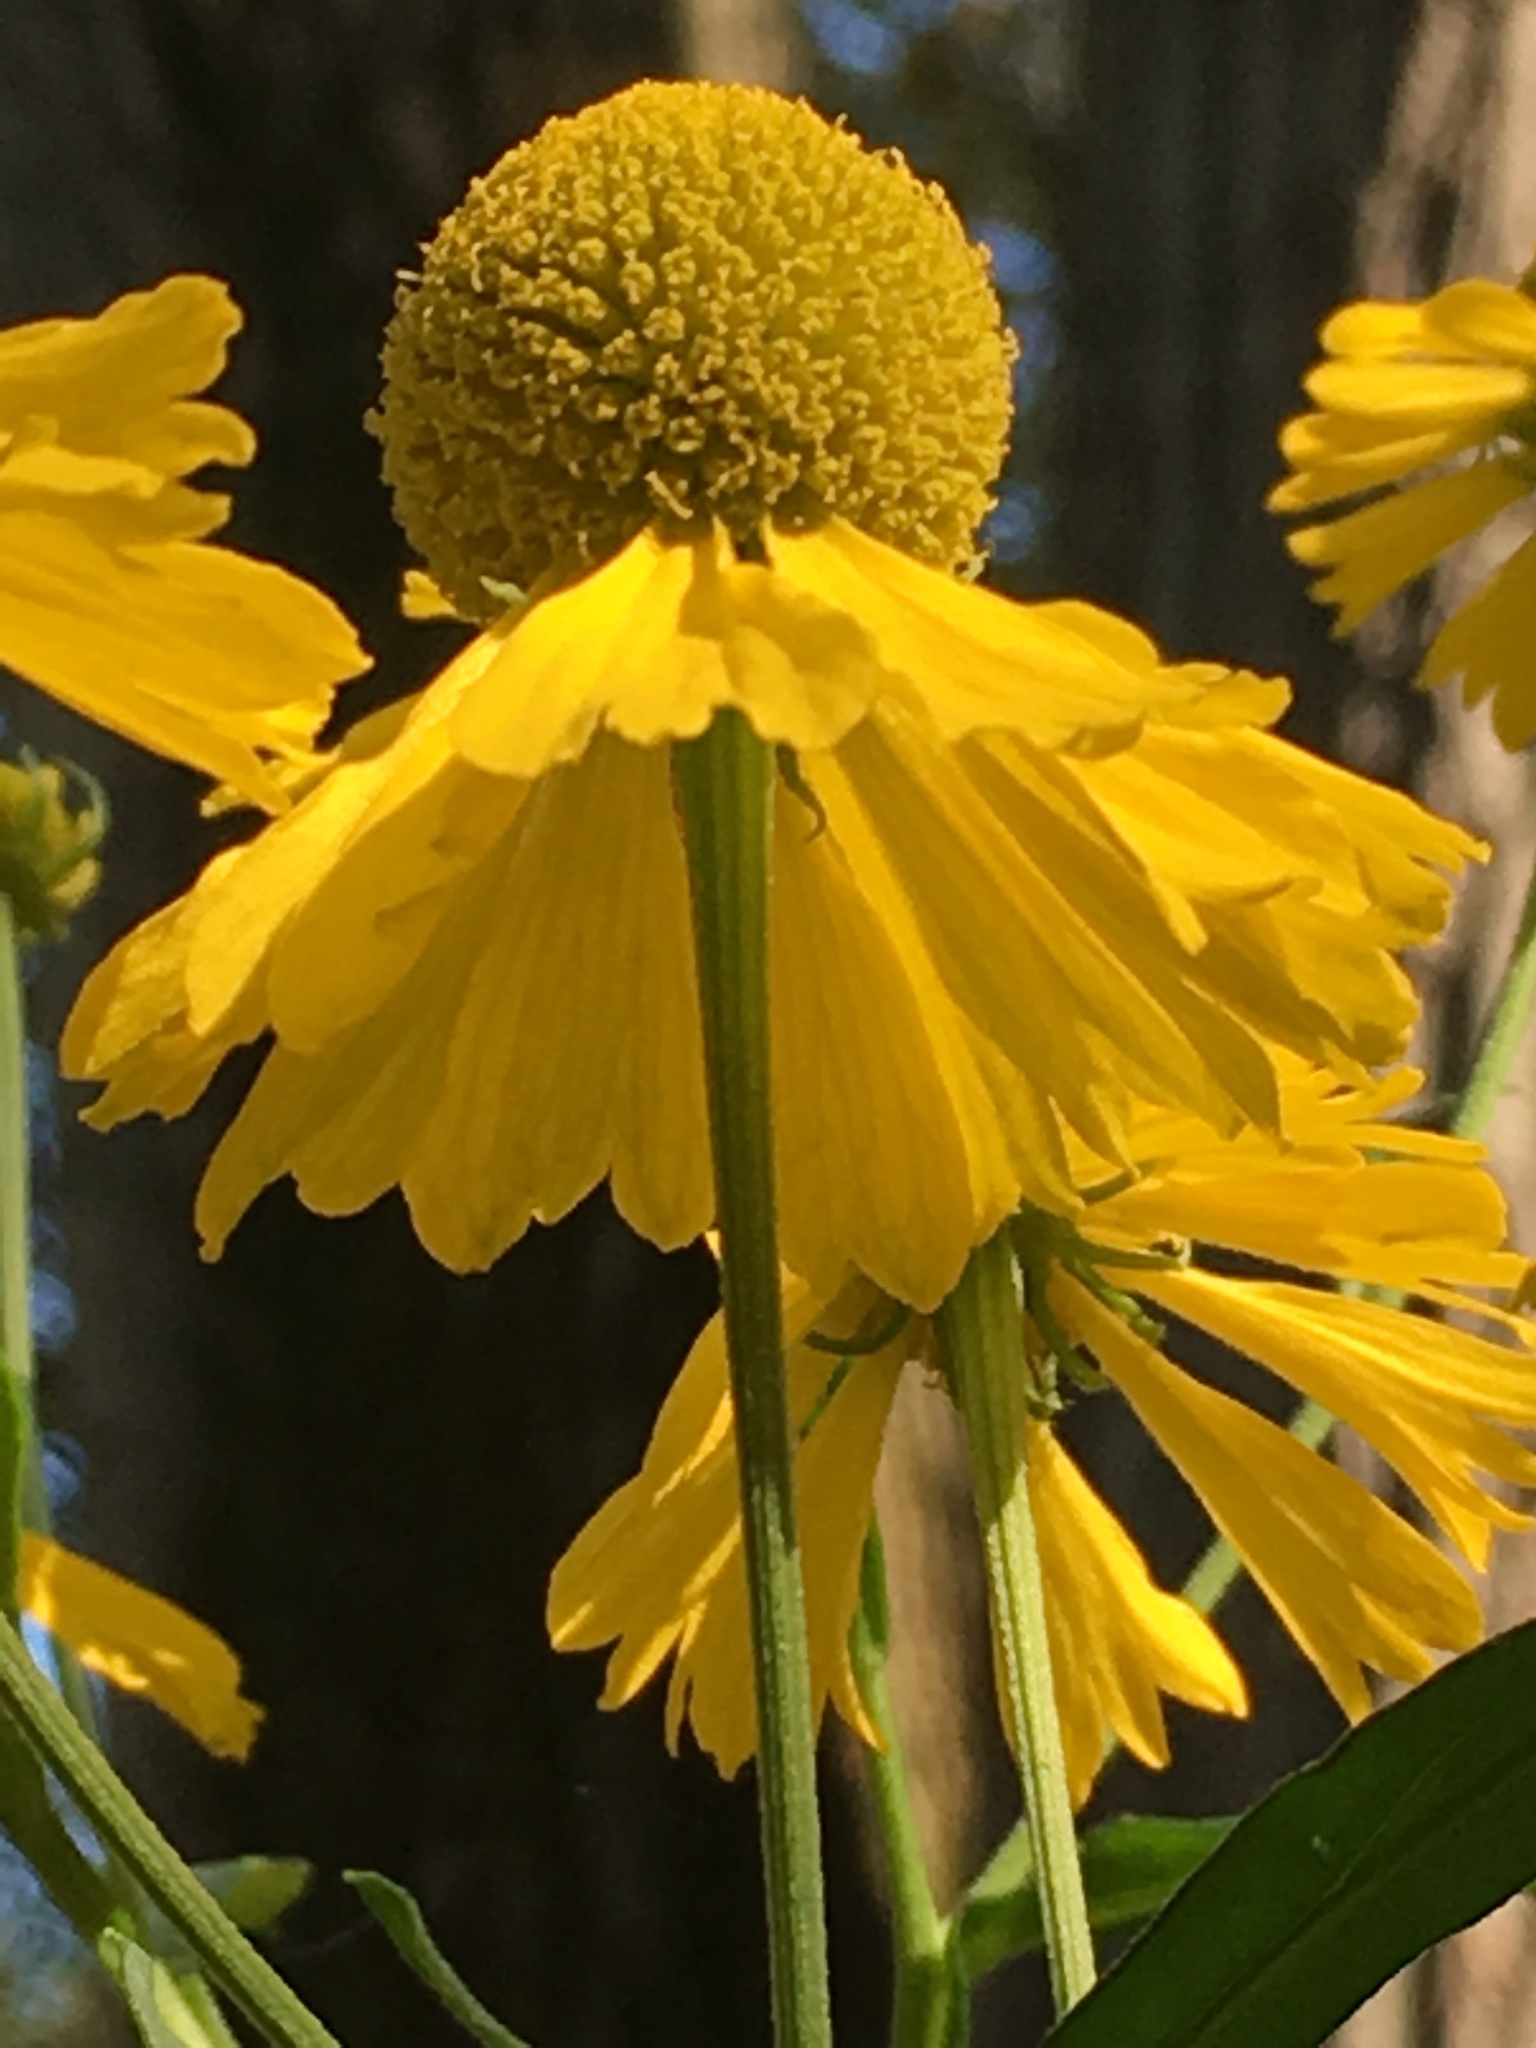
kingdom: Plantae
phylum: Tracheophyta
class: Magnoliopsida
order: Asterales
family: Asteraceae
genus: Helenium
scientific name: Helenium autumnale
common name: Sneezeweed
